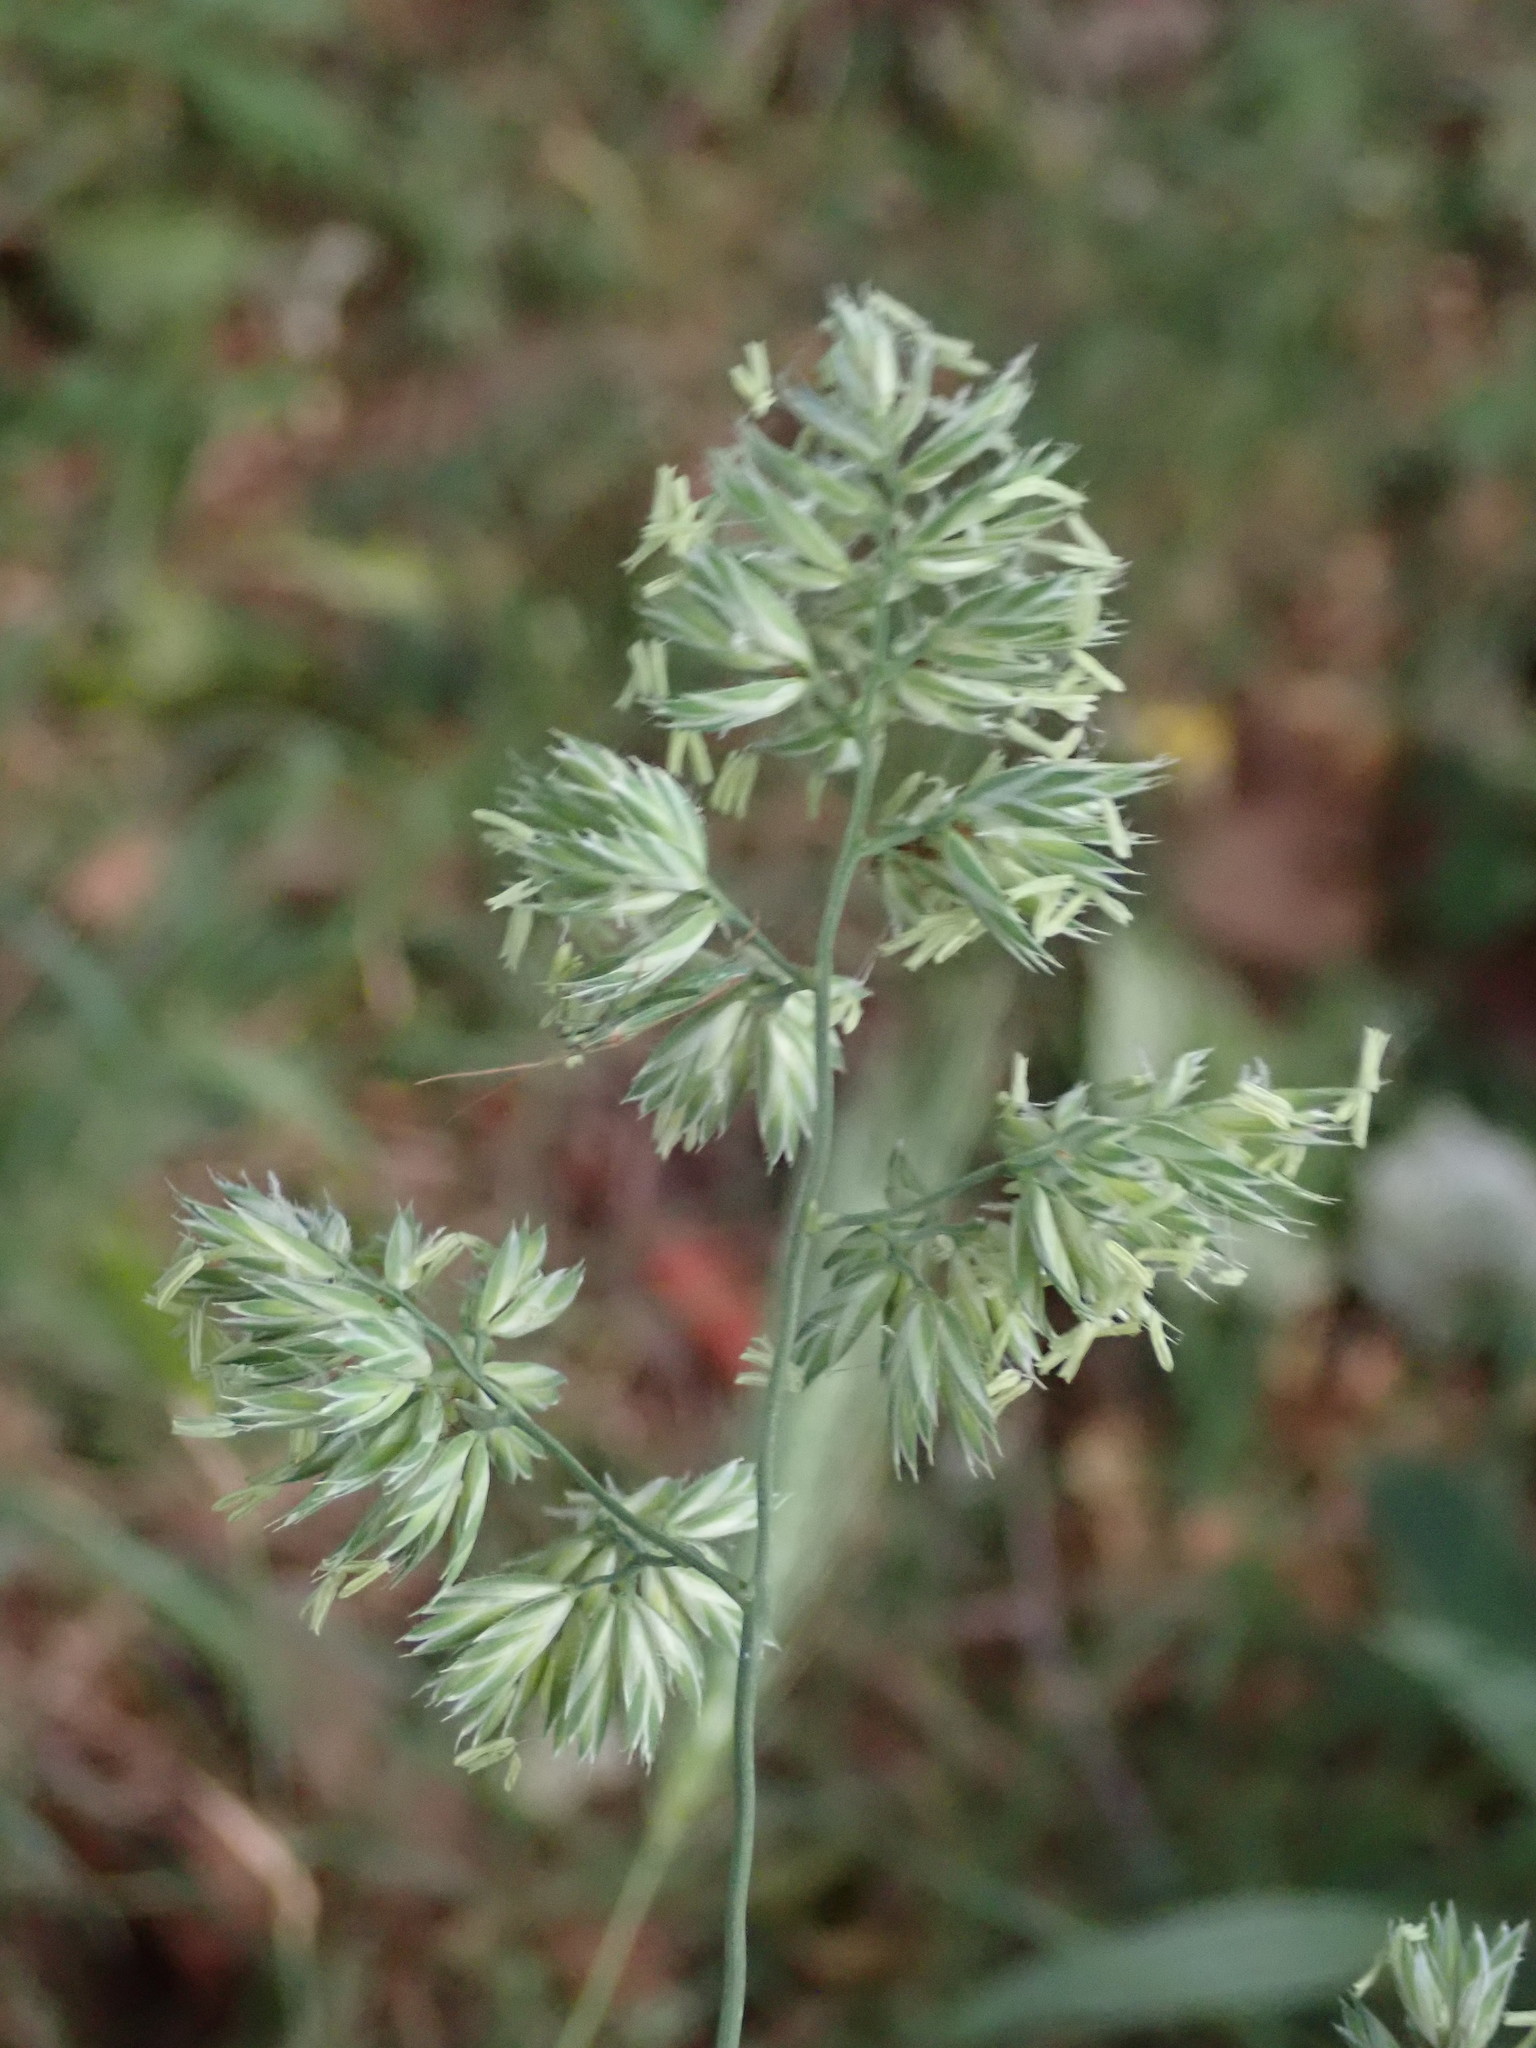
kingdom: Plantae
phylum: Tracheophyta
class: Liliopsida
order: Poales
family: Poaceae
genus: Dactylis
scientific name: Dactylis glomerata
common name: Orchardgrass
